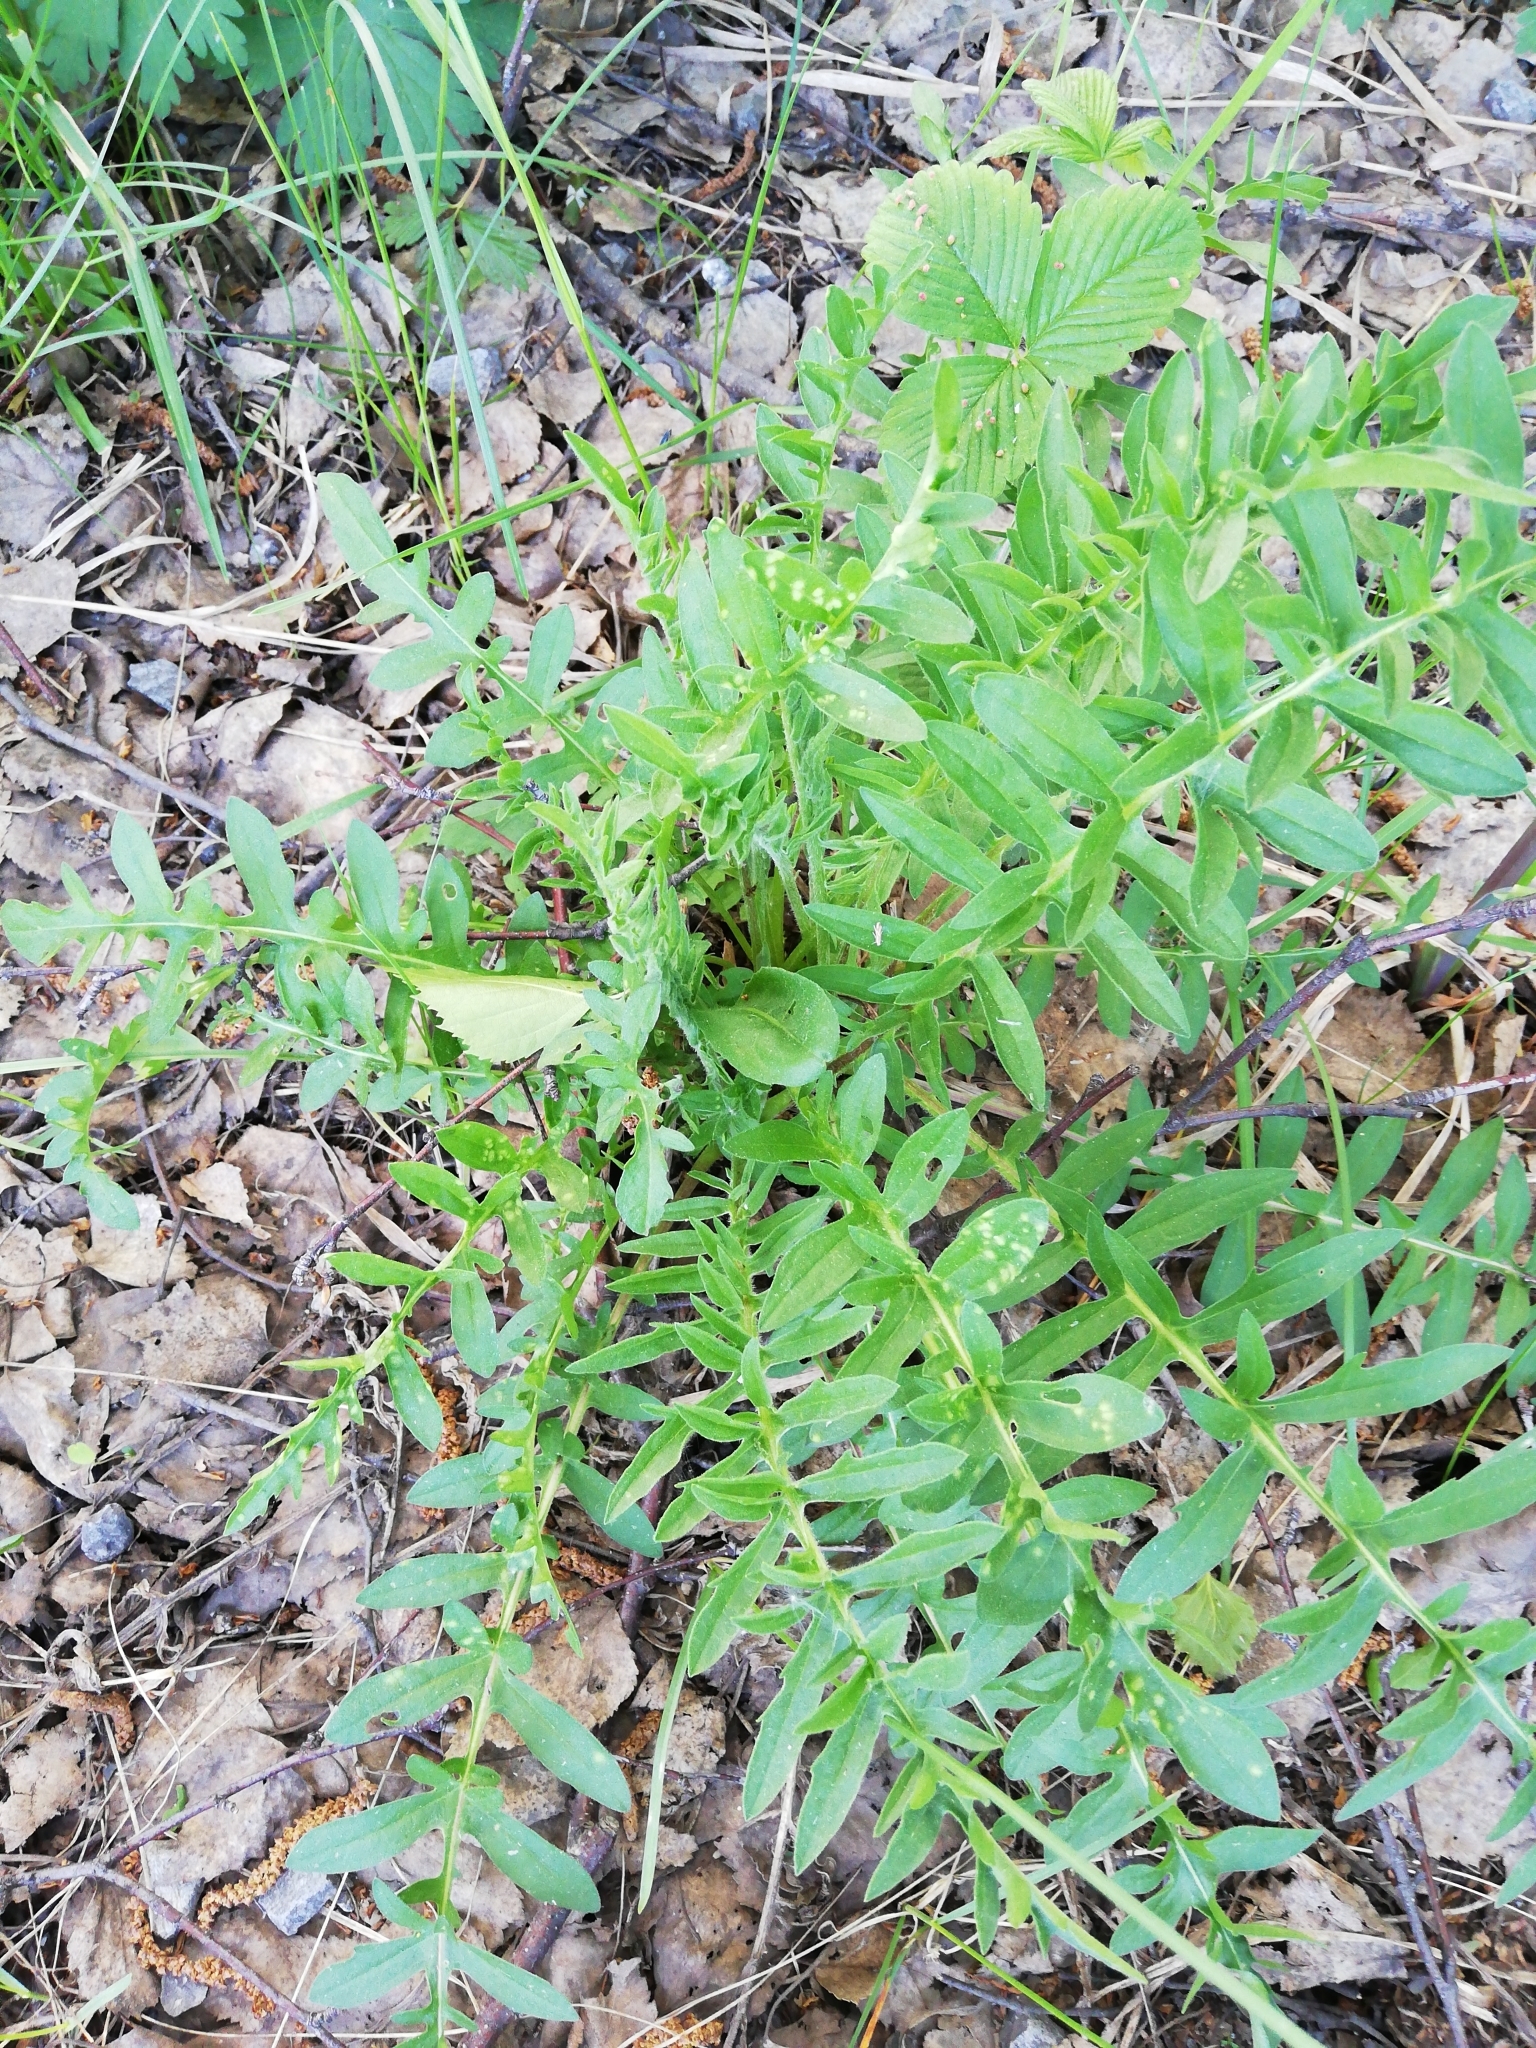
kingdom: Plantae
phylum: Tracheophyta
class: Magnoliopsida
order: Asterales
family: Asteraceae
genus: Centaurea
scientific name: Centaurea scabiosa
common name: Greater knapweed
